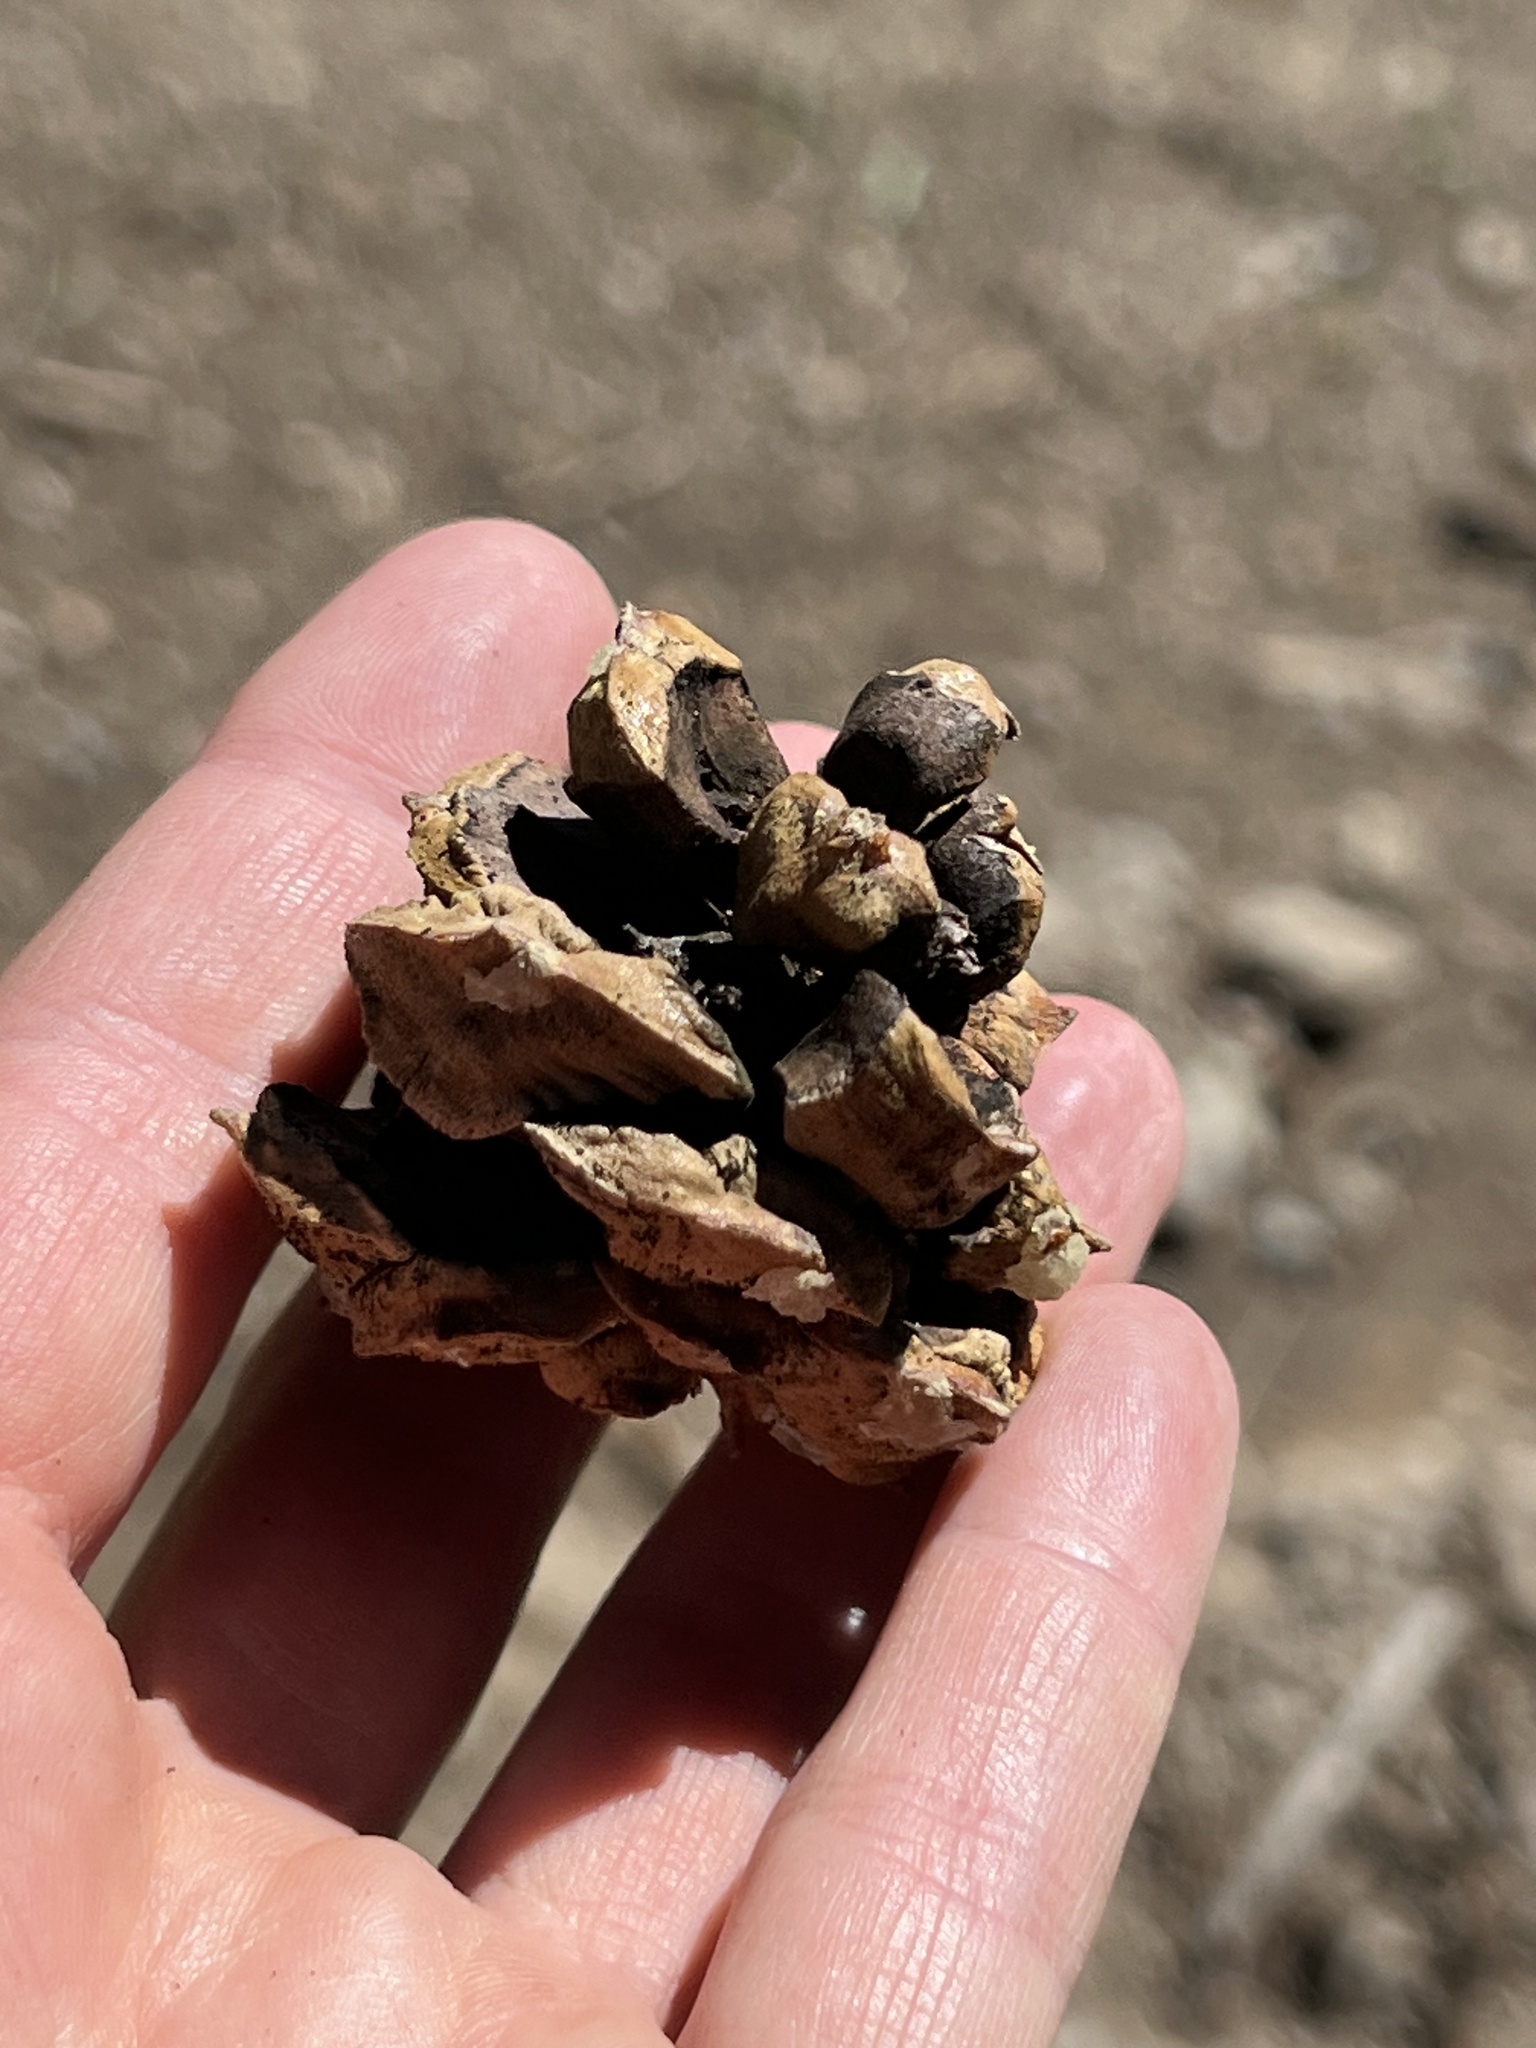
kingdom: Plantae
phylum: Tracheophyta
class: Pinopsida
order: Pinales
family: Pinaceae
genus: Pinus
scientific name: Pinus albicaulis
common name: Whitebark pine
